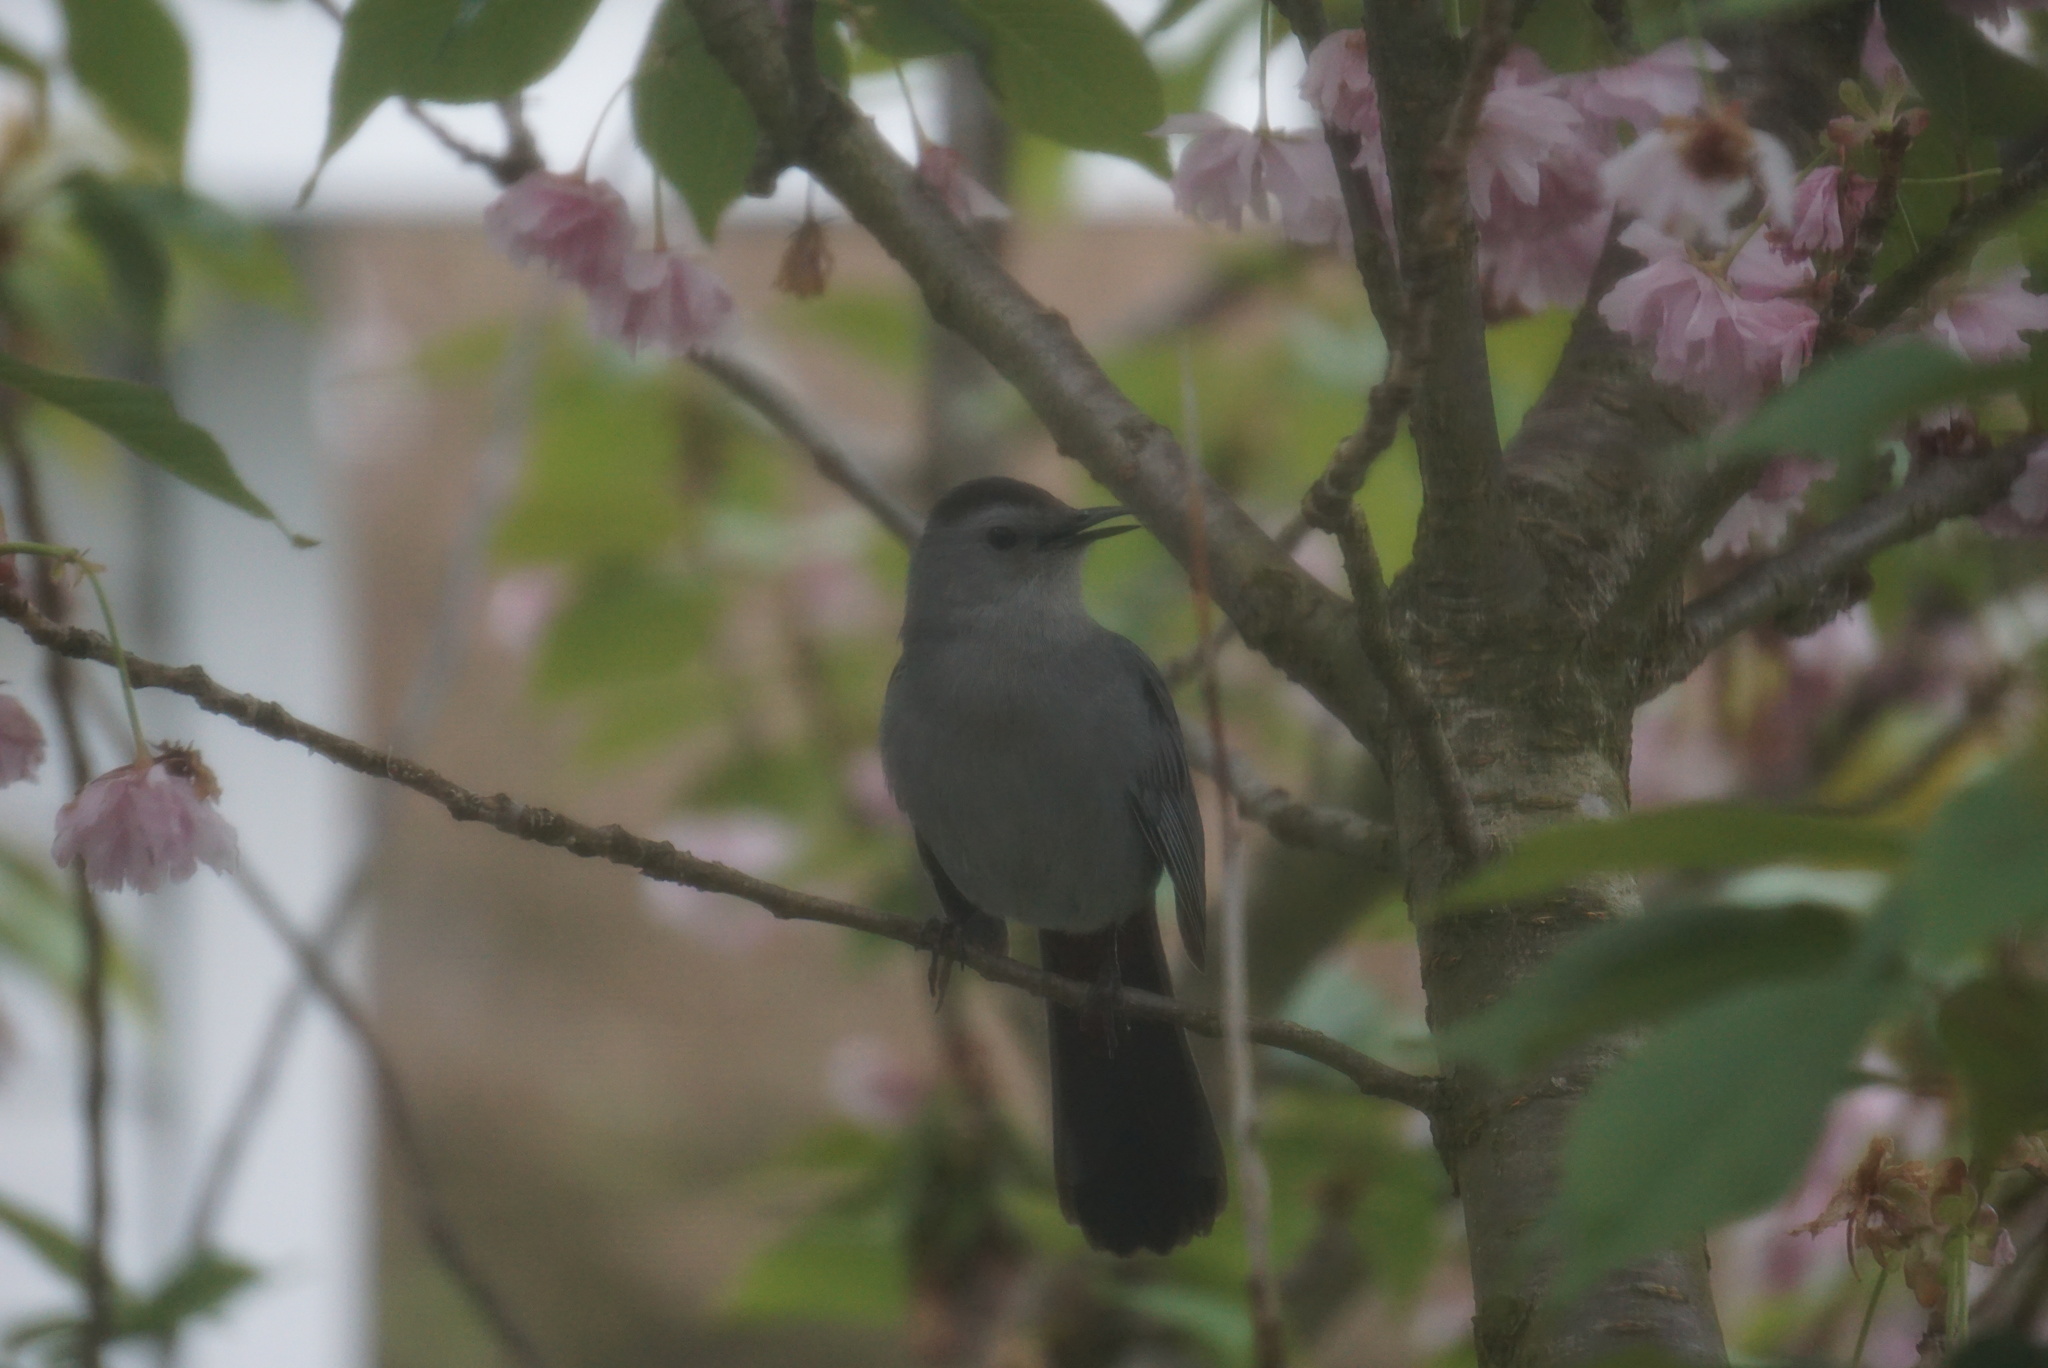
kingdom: Animalia
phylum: Chordata
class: Aves
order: Passeriformes
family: Mimidae
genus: Dumetella
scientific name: Dumetella carolinensis
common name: Gray catbird
